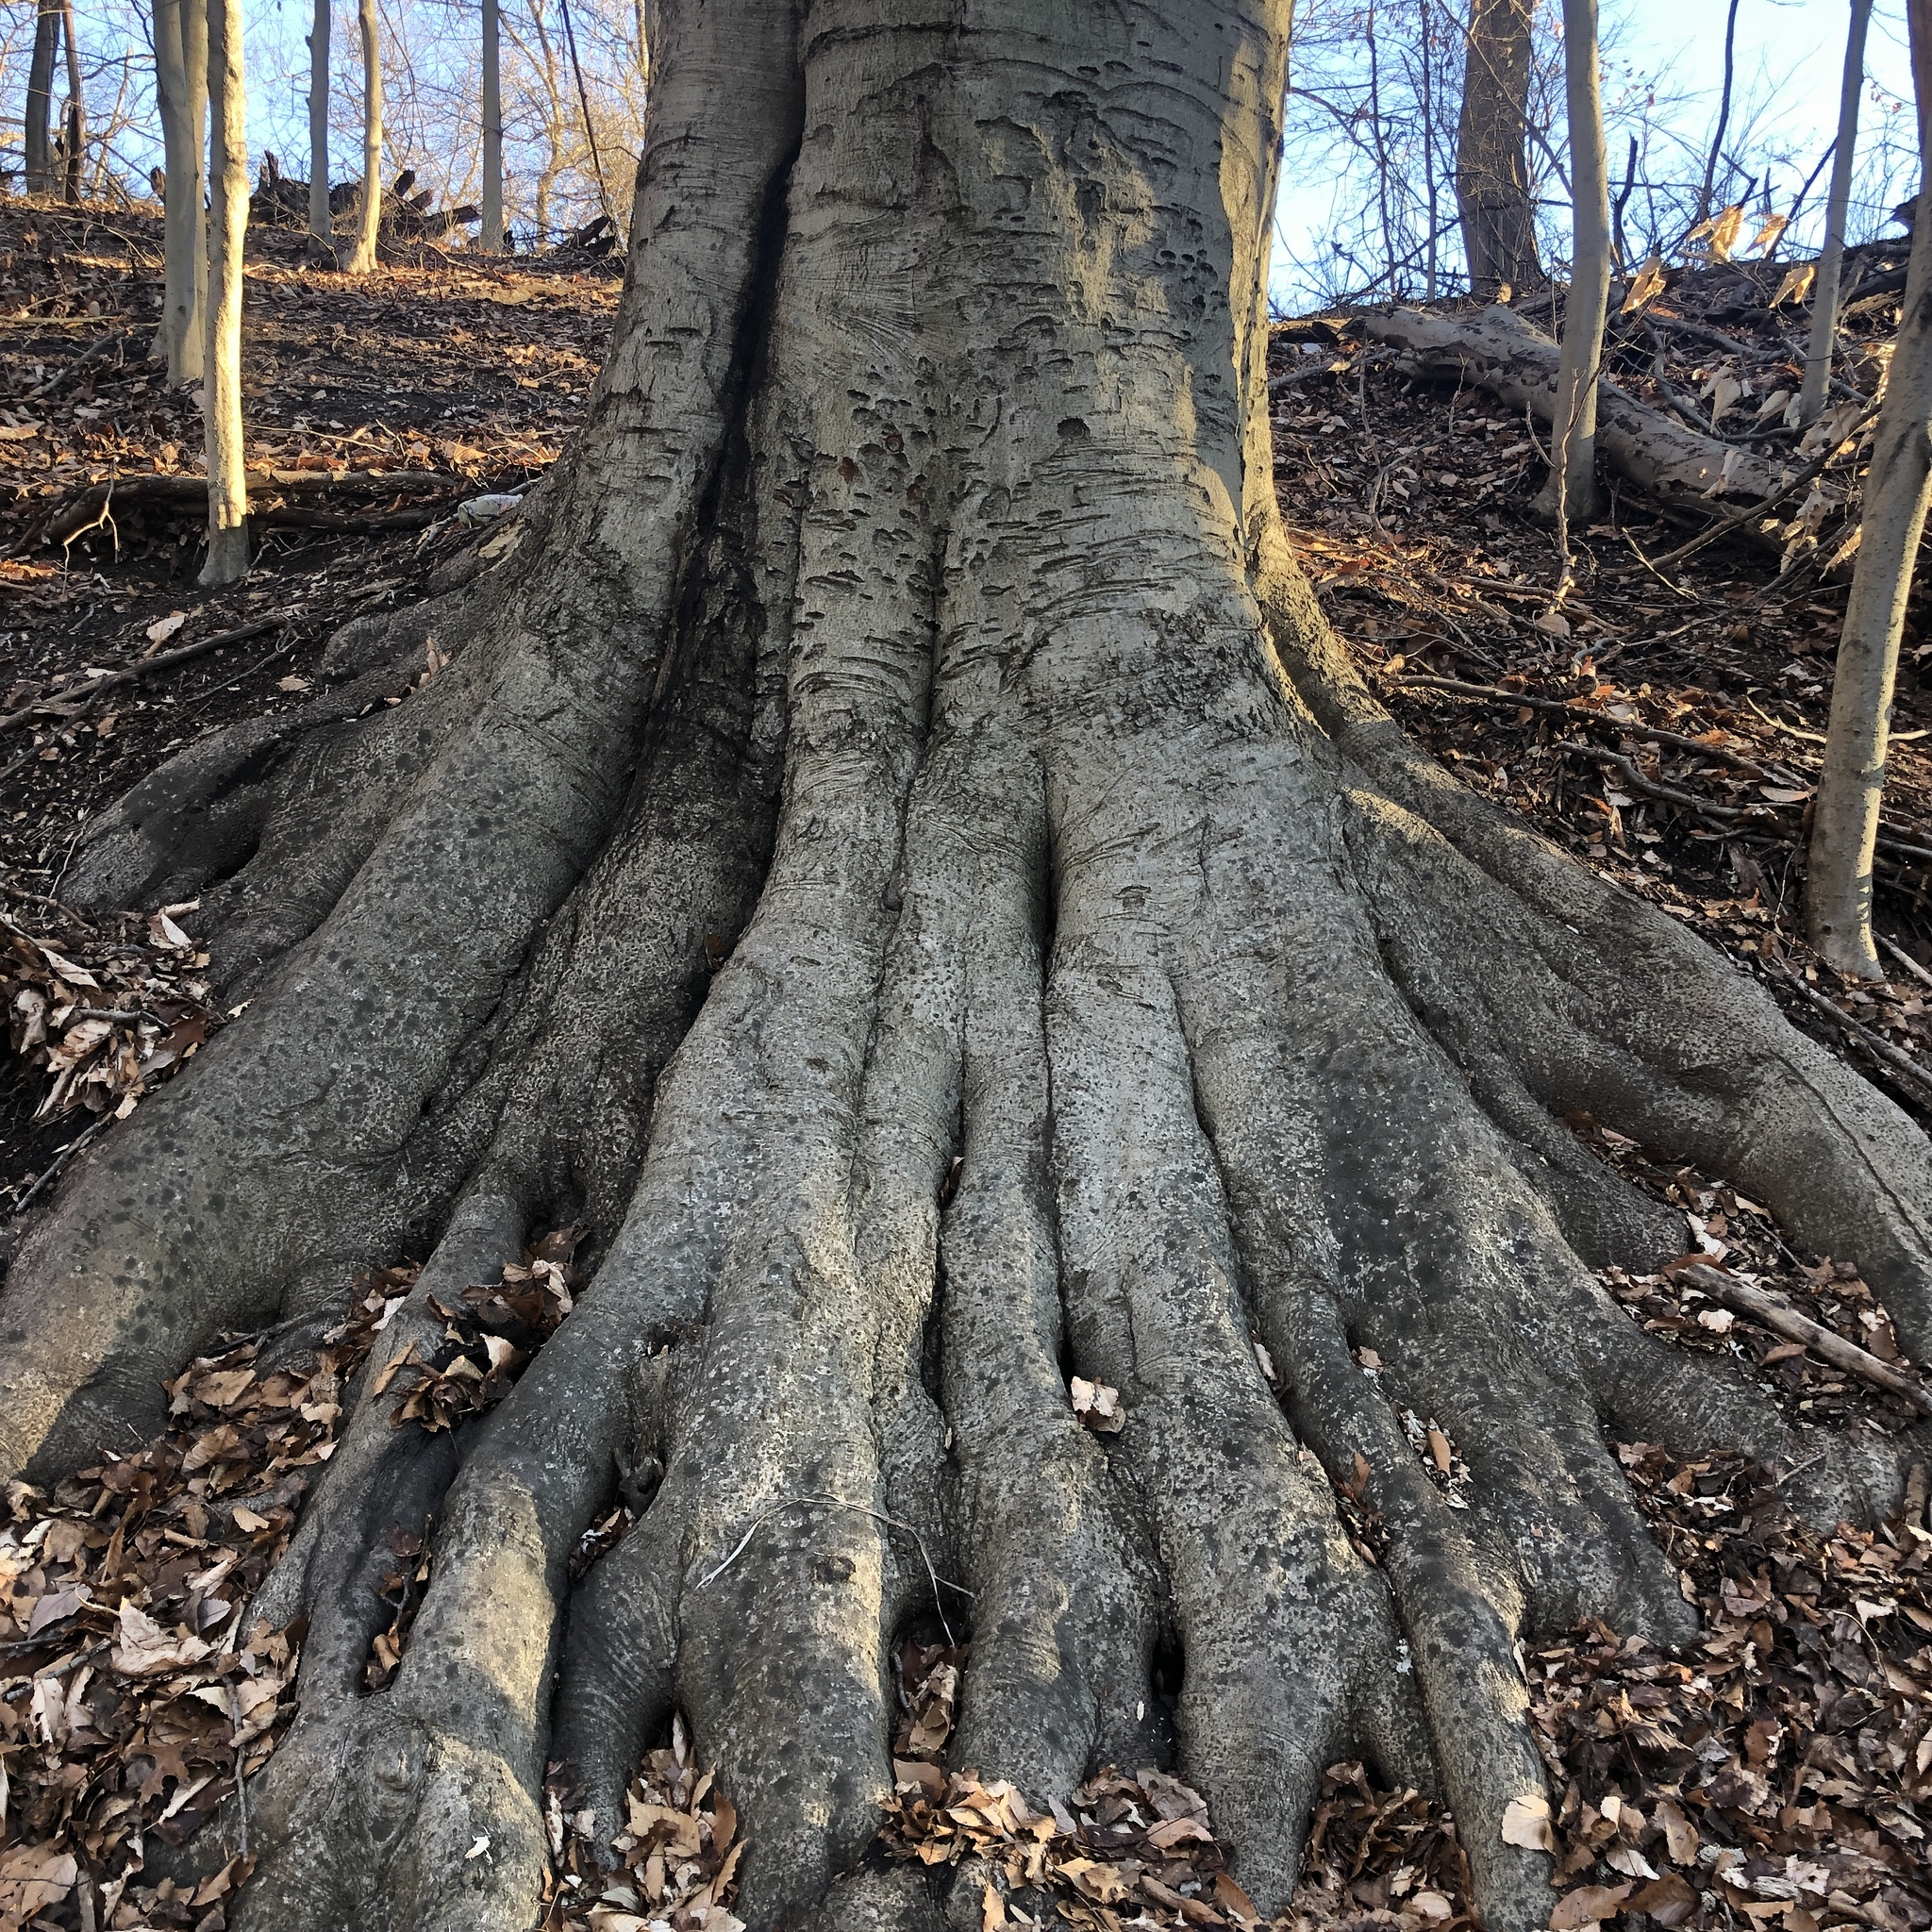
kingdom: Plantae
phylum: Tracheophyta
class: Magnoliopsida
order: Fagales
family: Fagaceae
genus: Fagus
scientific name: Fagus grandifolia
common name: American beech
